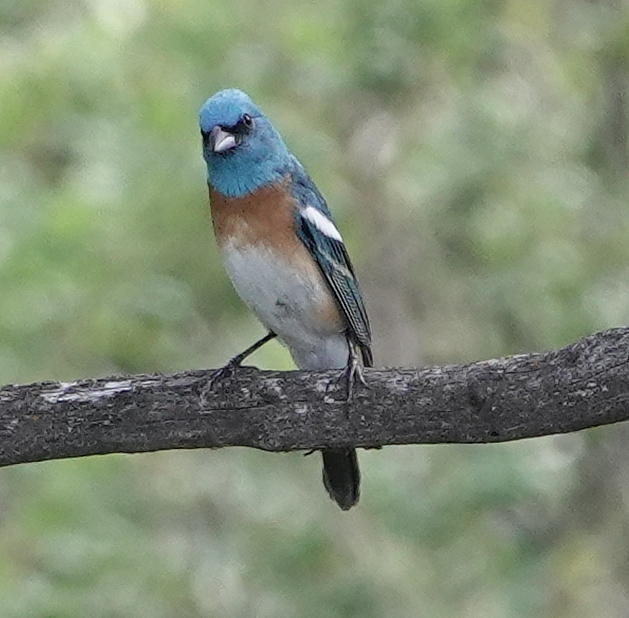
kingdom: Animalia
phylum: Chordata
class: Aves
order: Passeriformes
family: Cardinalidae
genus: Passerina
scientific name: Passerina amoena
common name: Lazuli bunting
